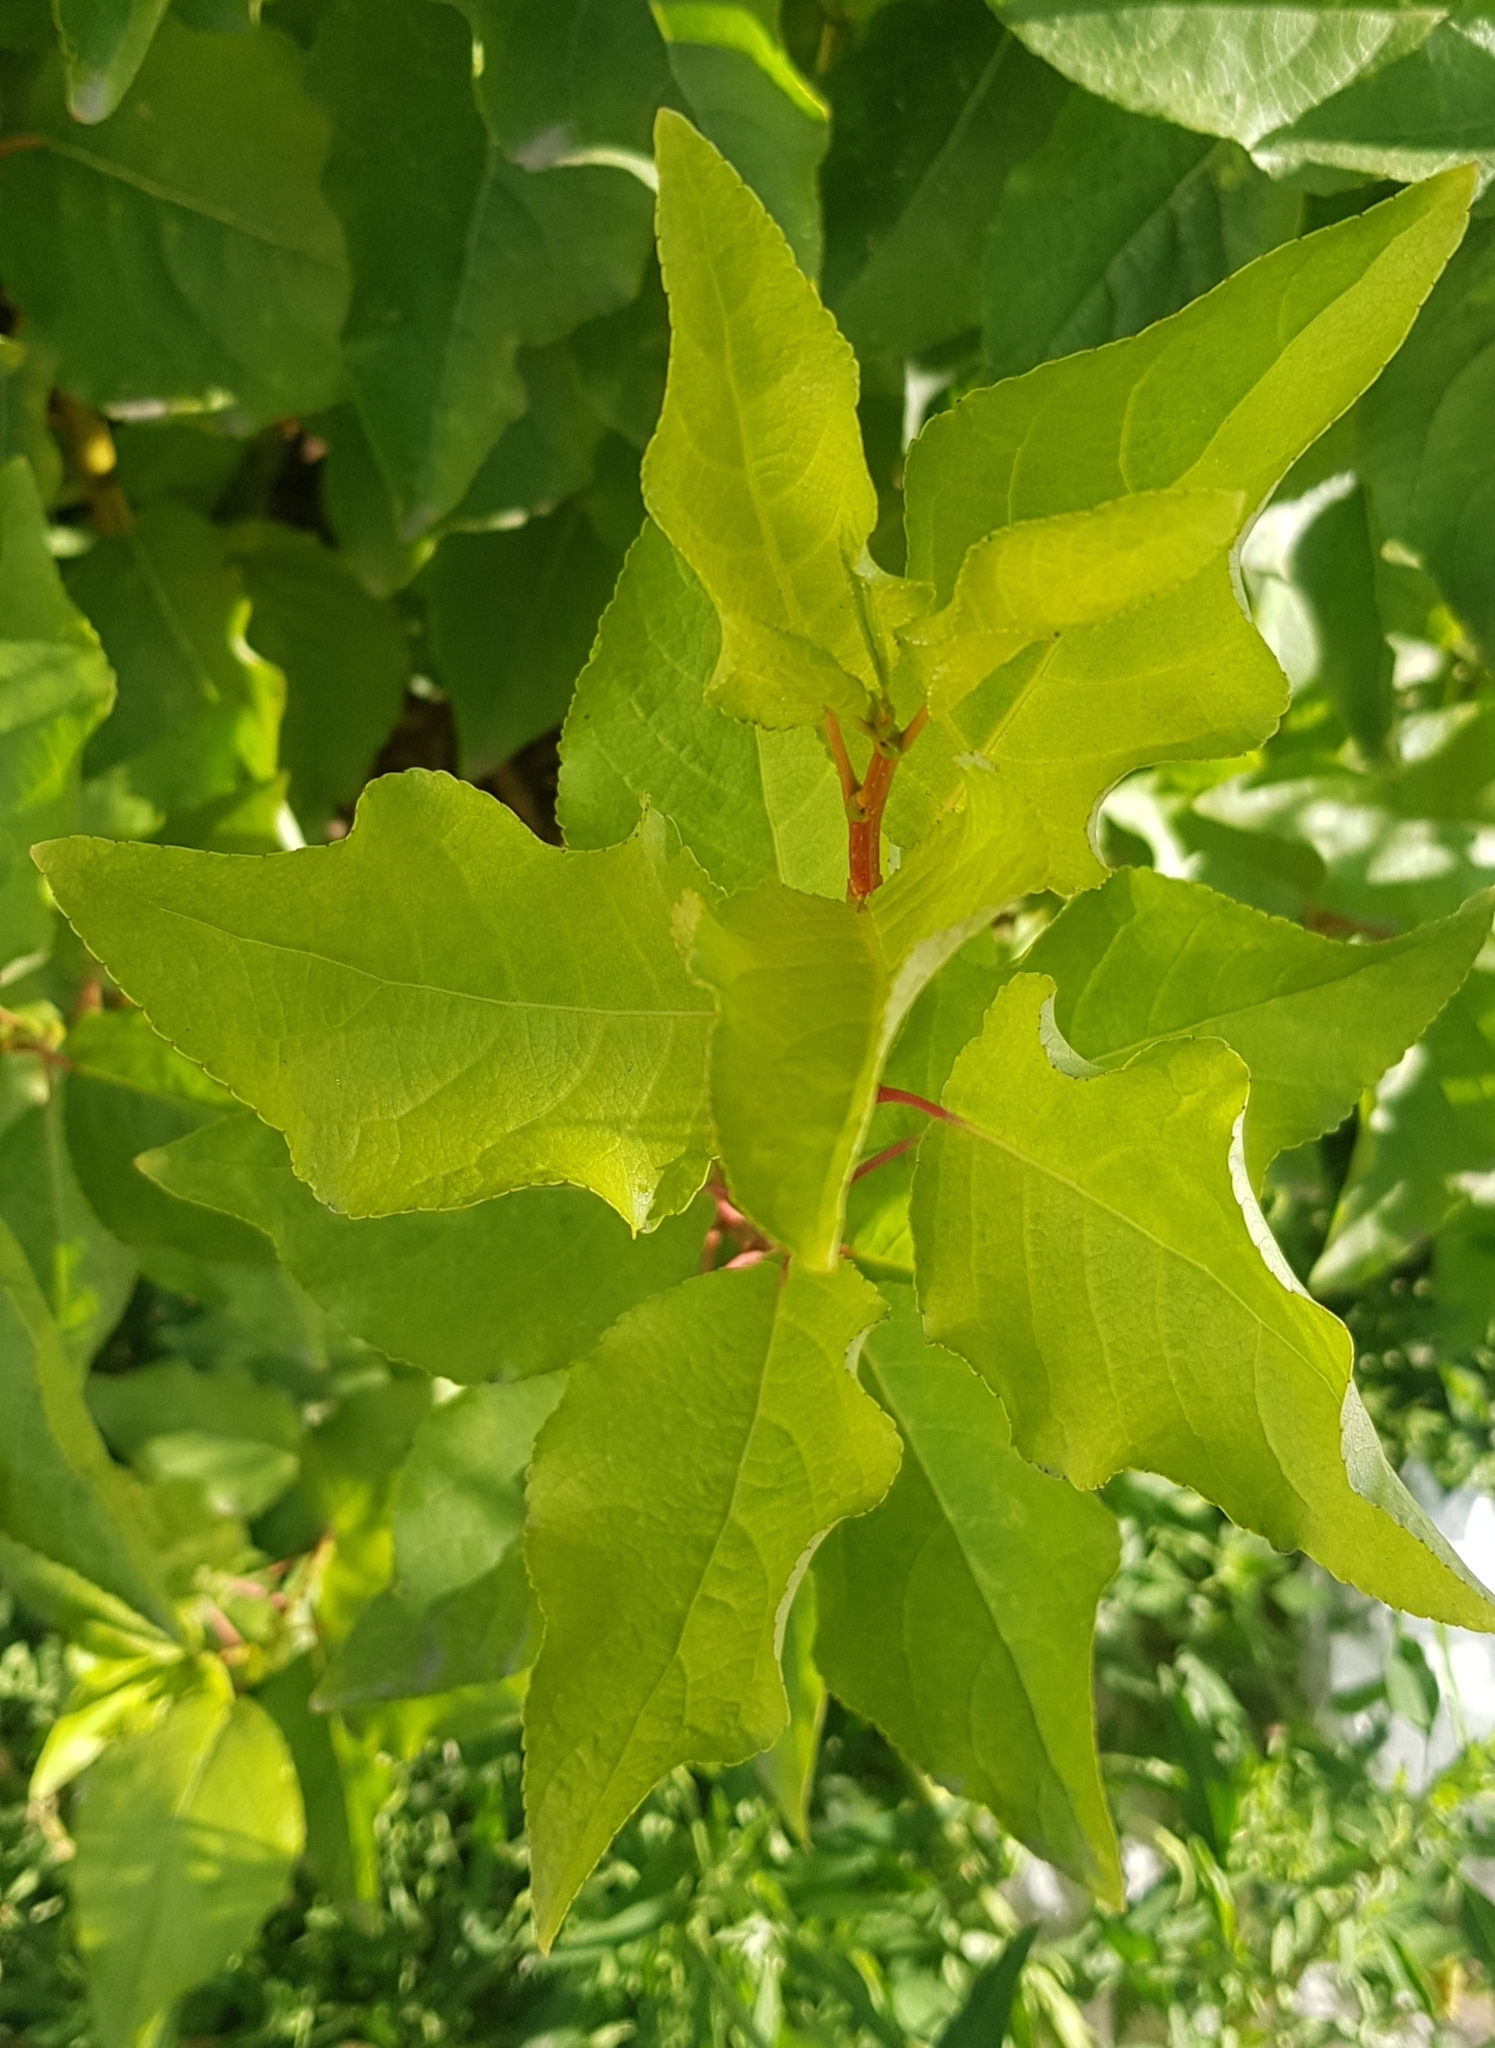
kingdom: Plantae
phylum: Tracheophyta
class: Magnoliopsida
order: Malpighiales
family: Salicaceae
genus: Populus
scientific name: Populus laurifolia
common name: Laurel-leaf poplar
